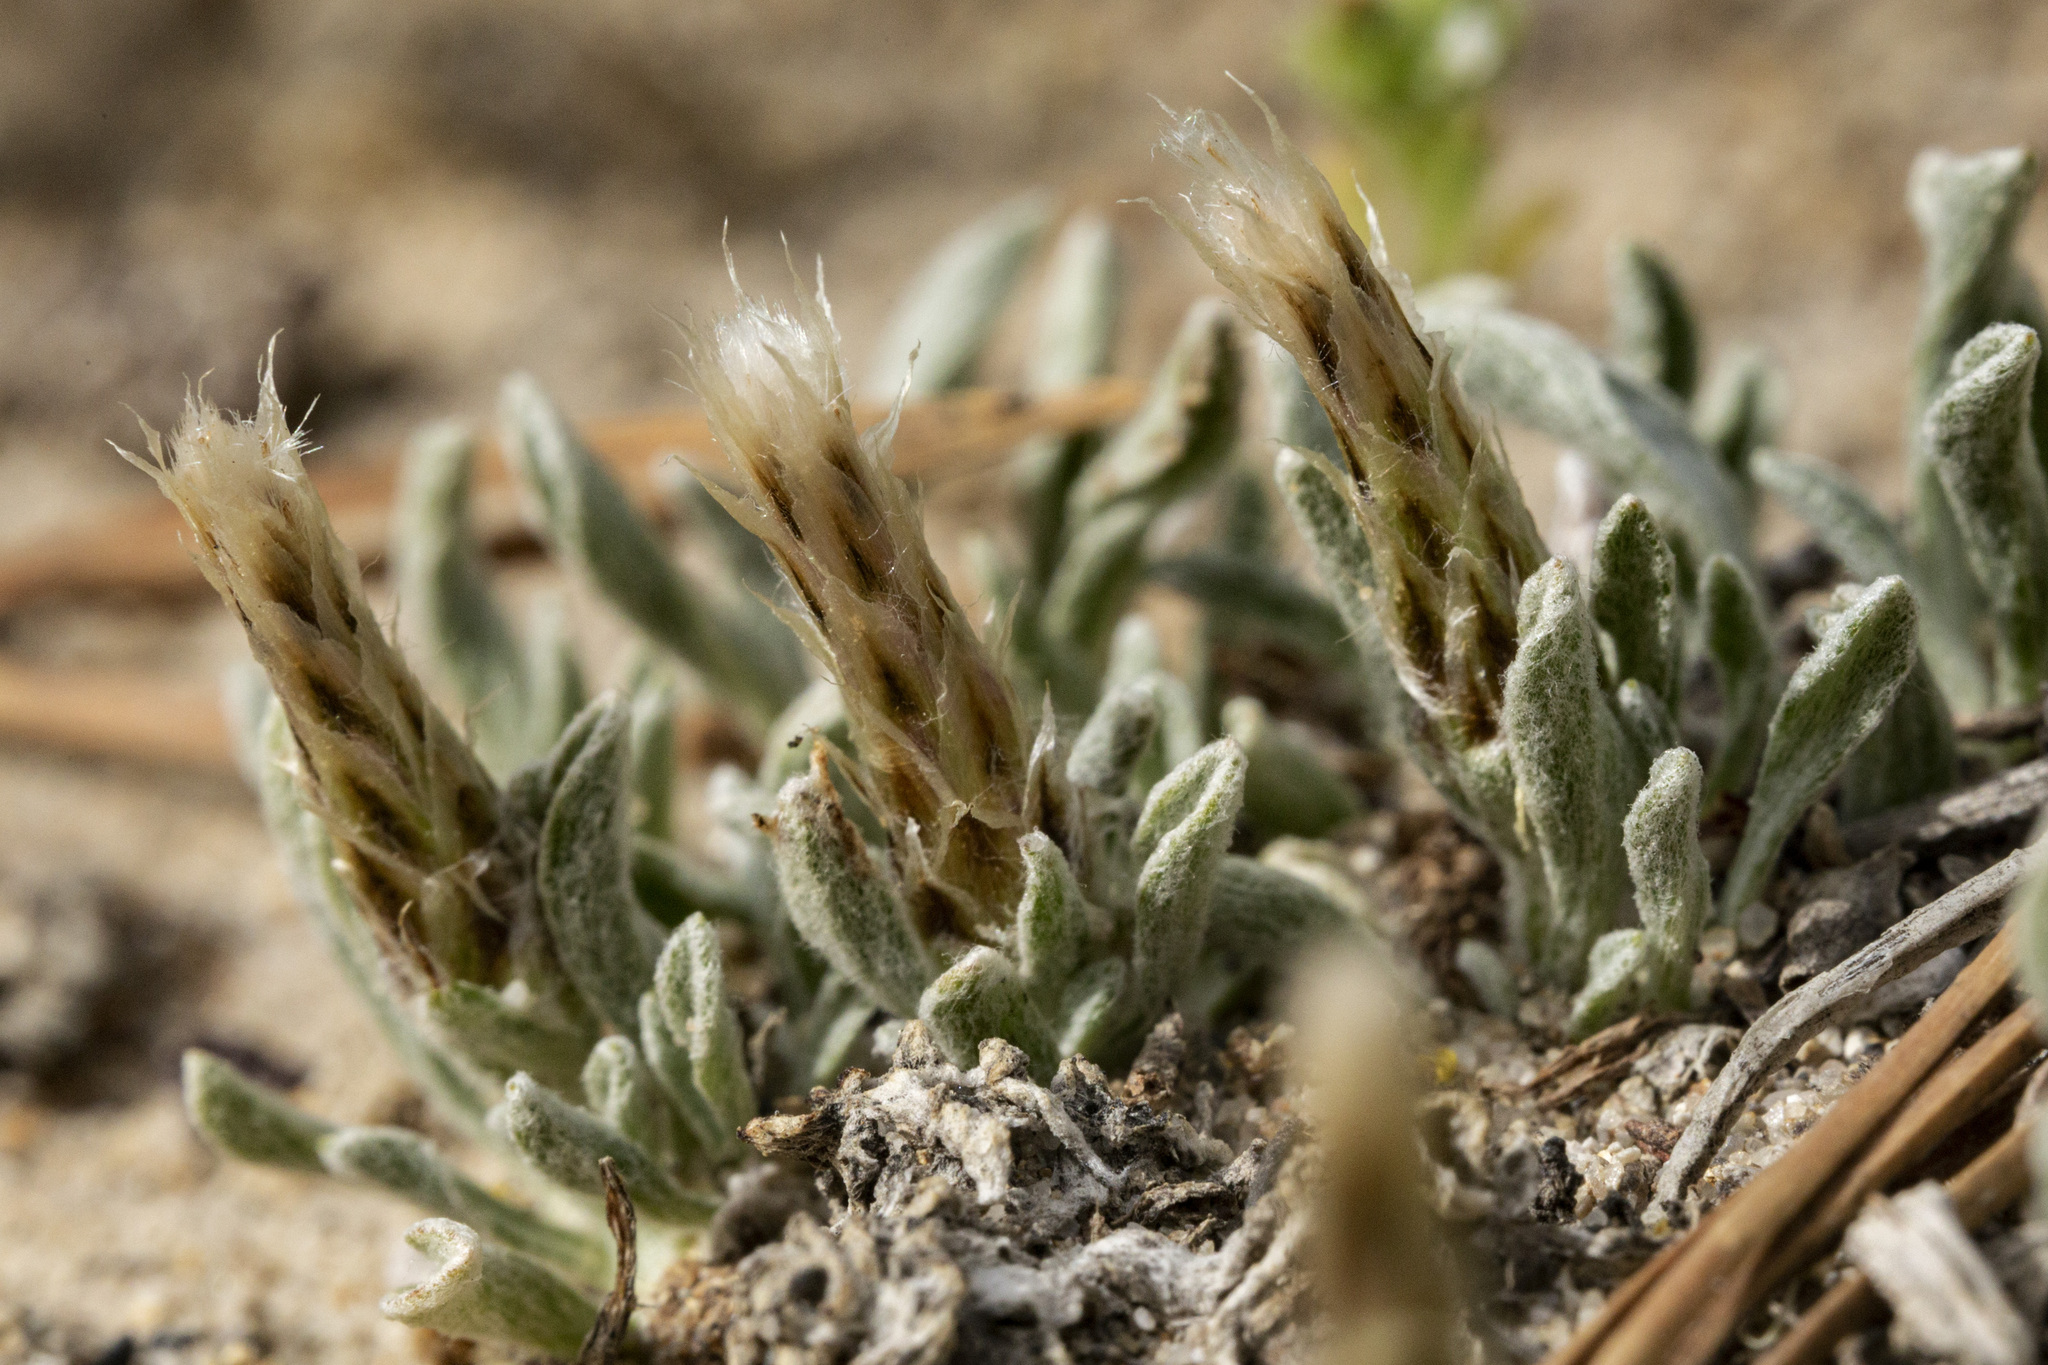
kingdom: Plantae
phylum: Tracheophyta
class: Magnoliopsida
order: Asterales
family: Asteraceae
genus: Antennaria
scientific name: Antennaria dimorpha
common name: Cushion pussytoes
